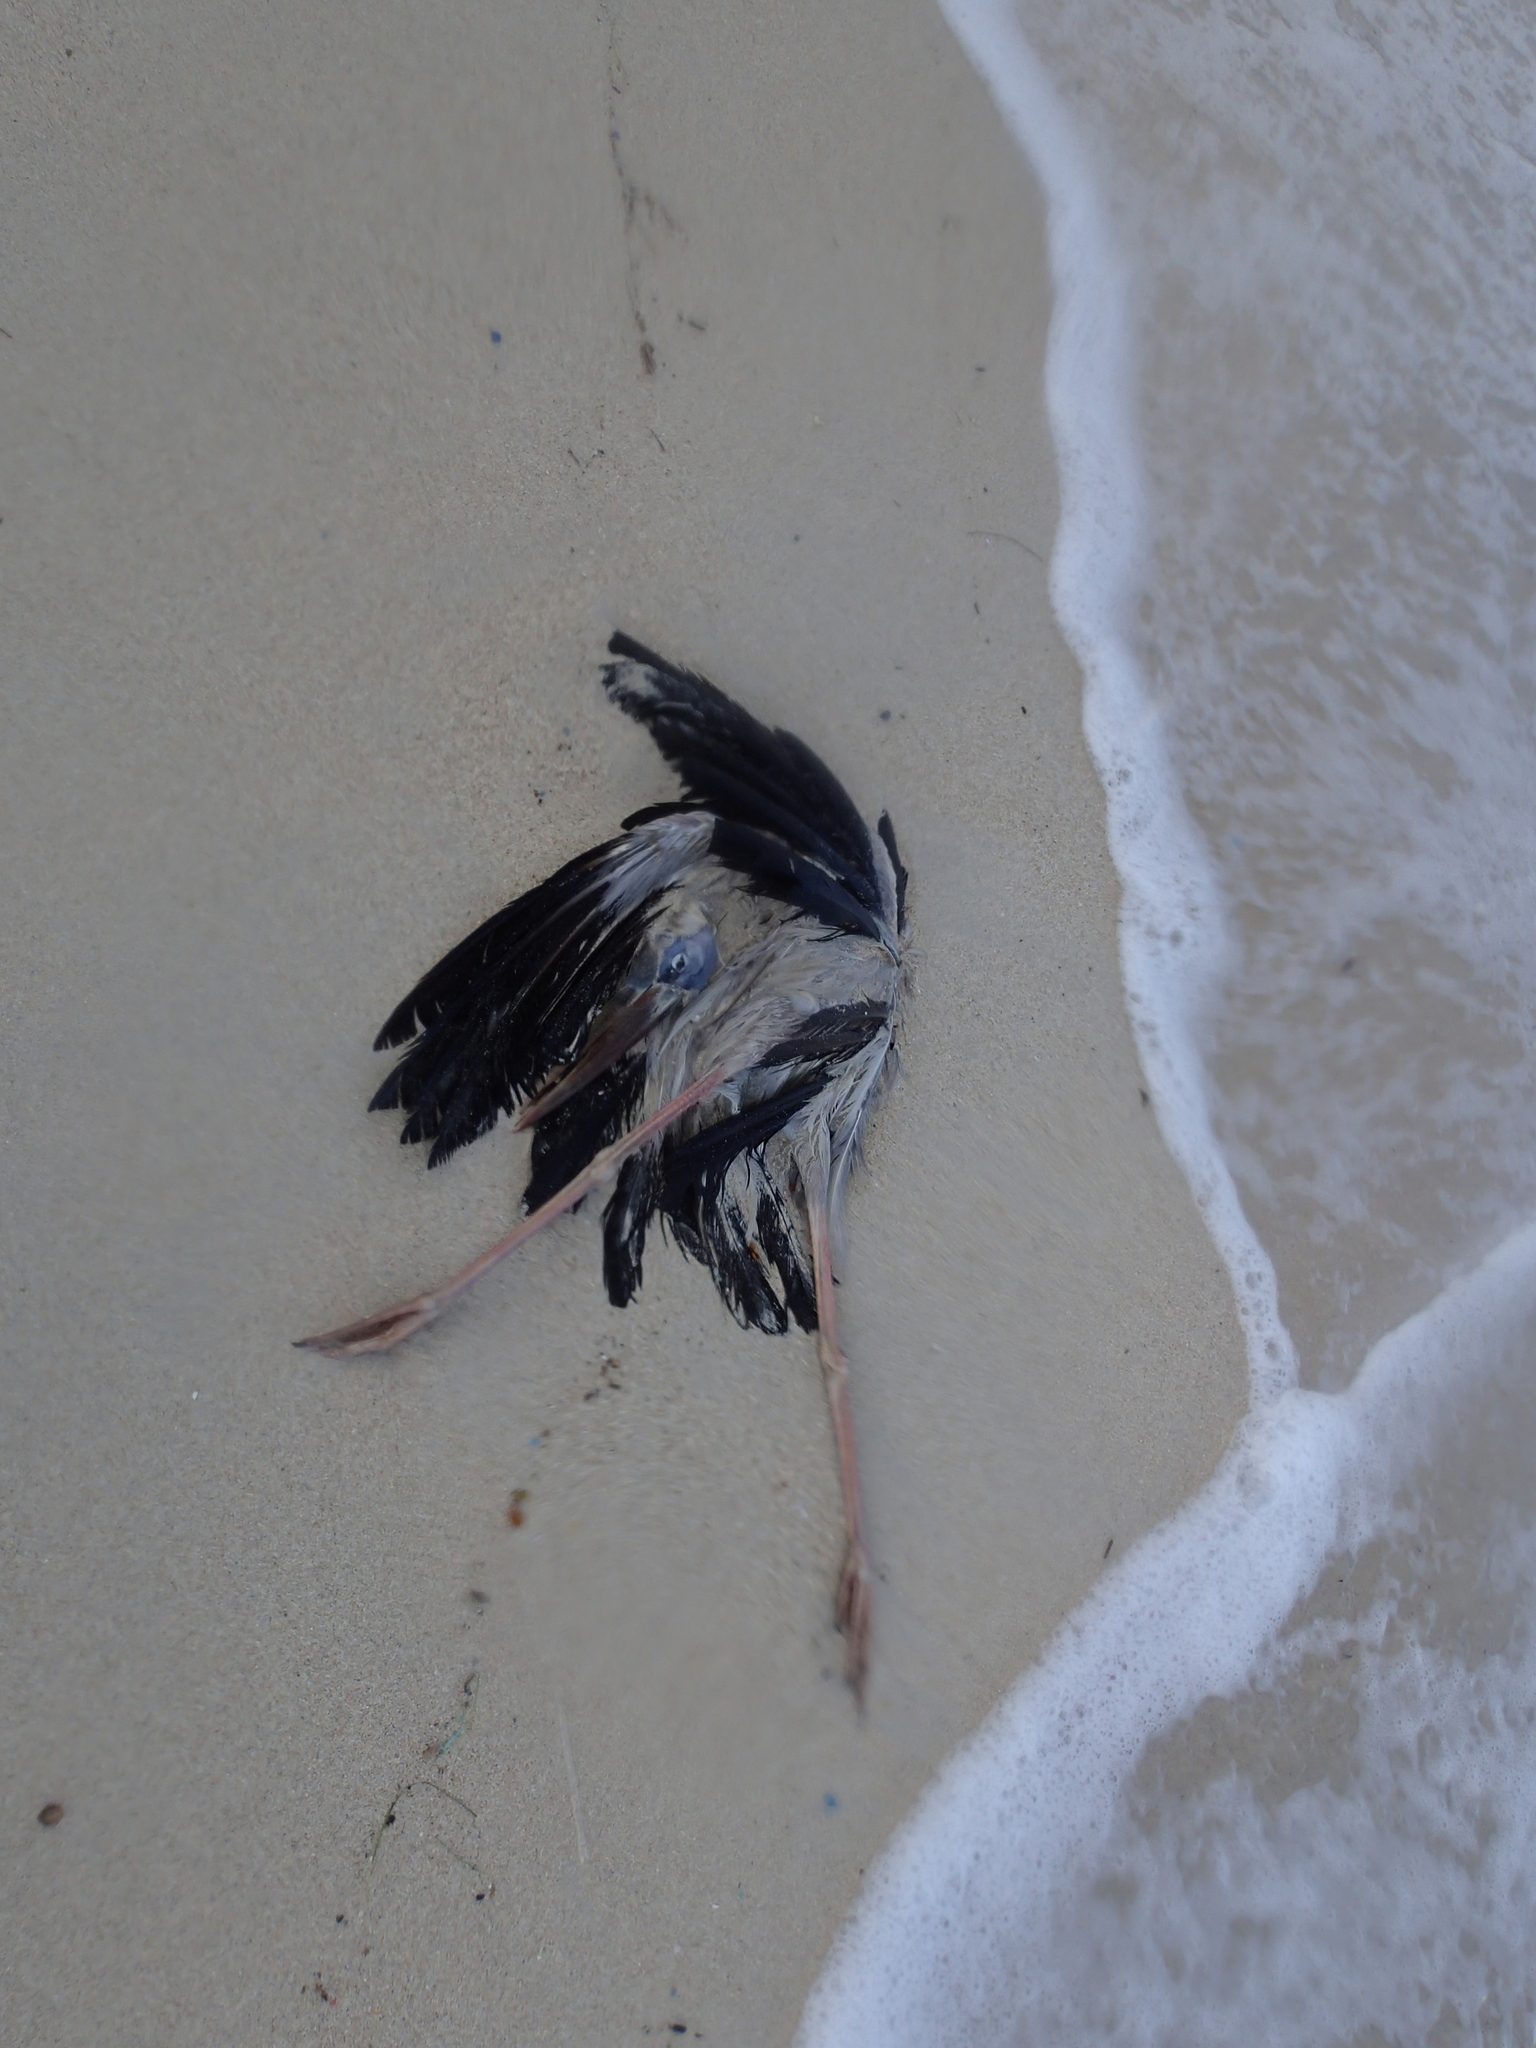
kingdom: Animalia
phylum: Chordata
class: Aves
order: Ciconiiformes
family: Ciconiidae
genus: Anastomus
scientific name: Anastomus oscitans
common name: Asian openbill
